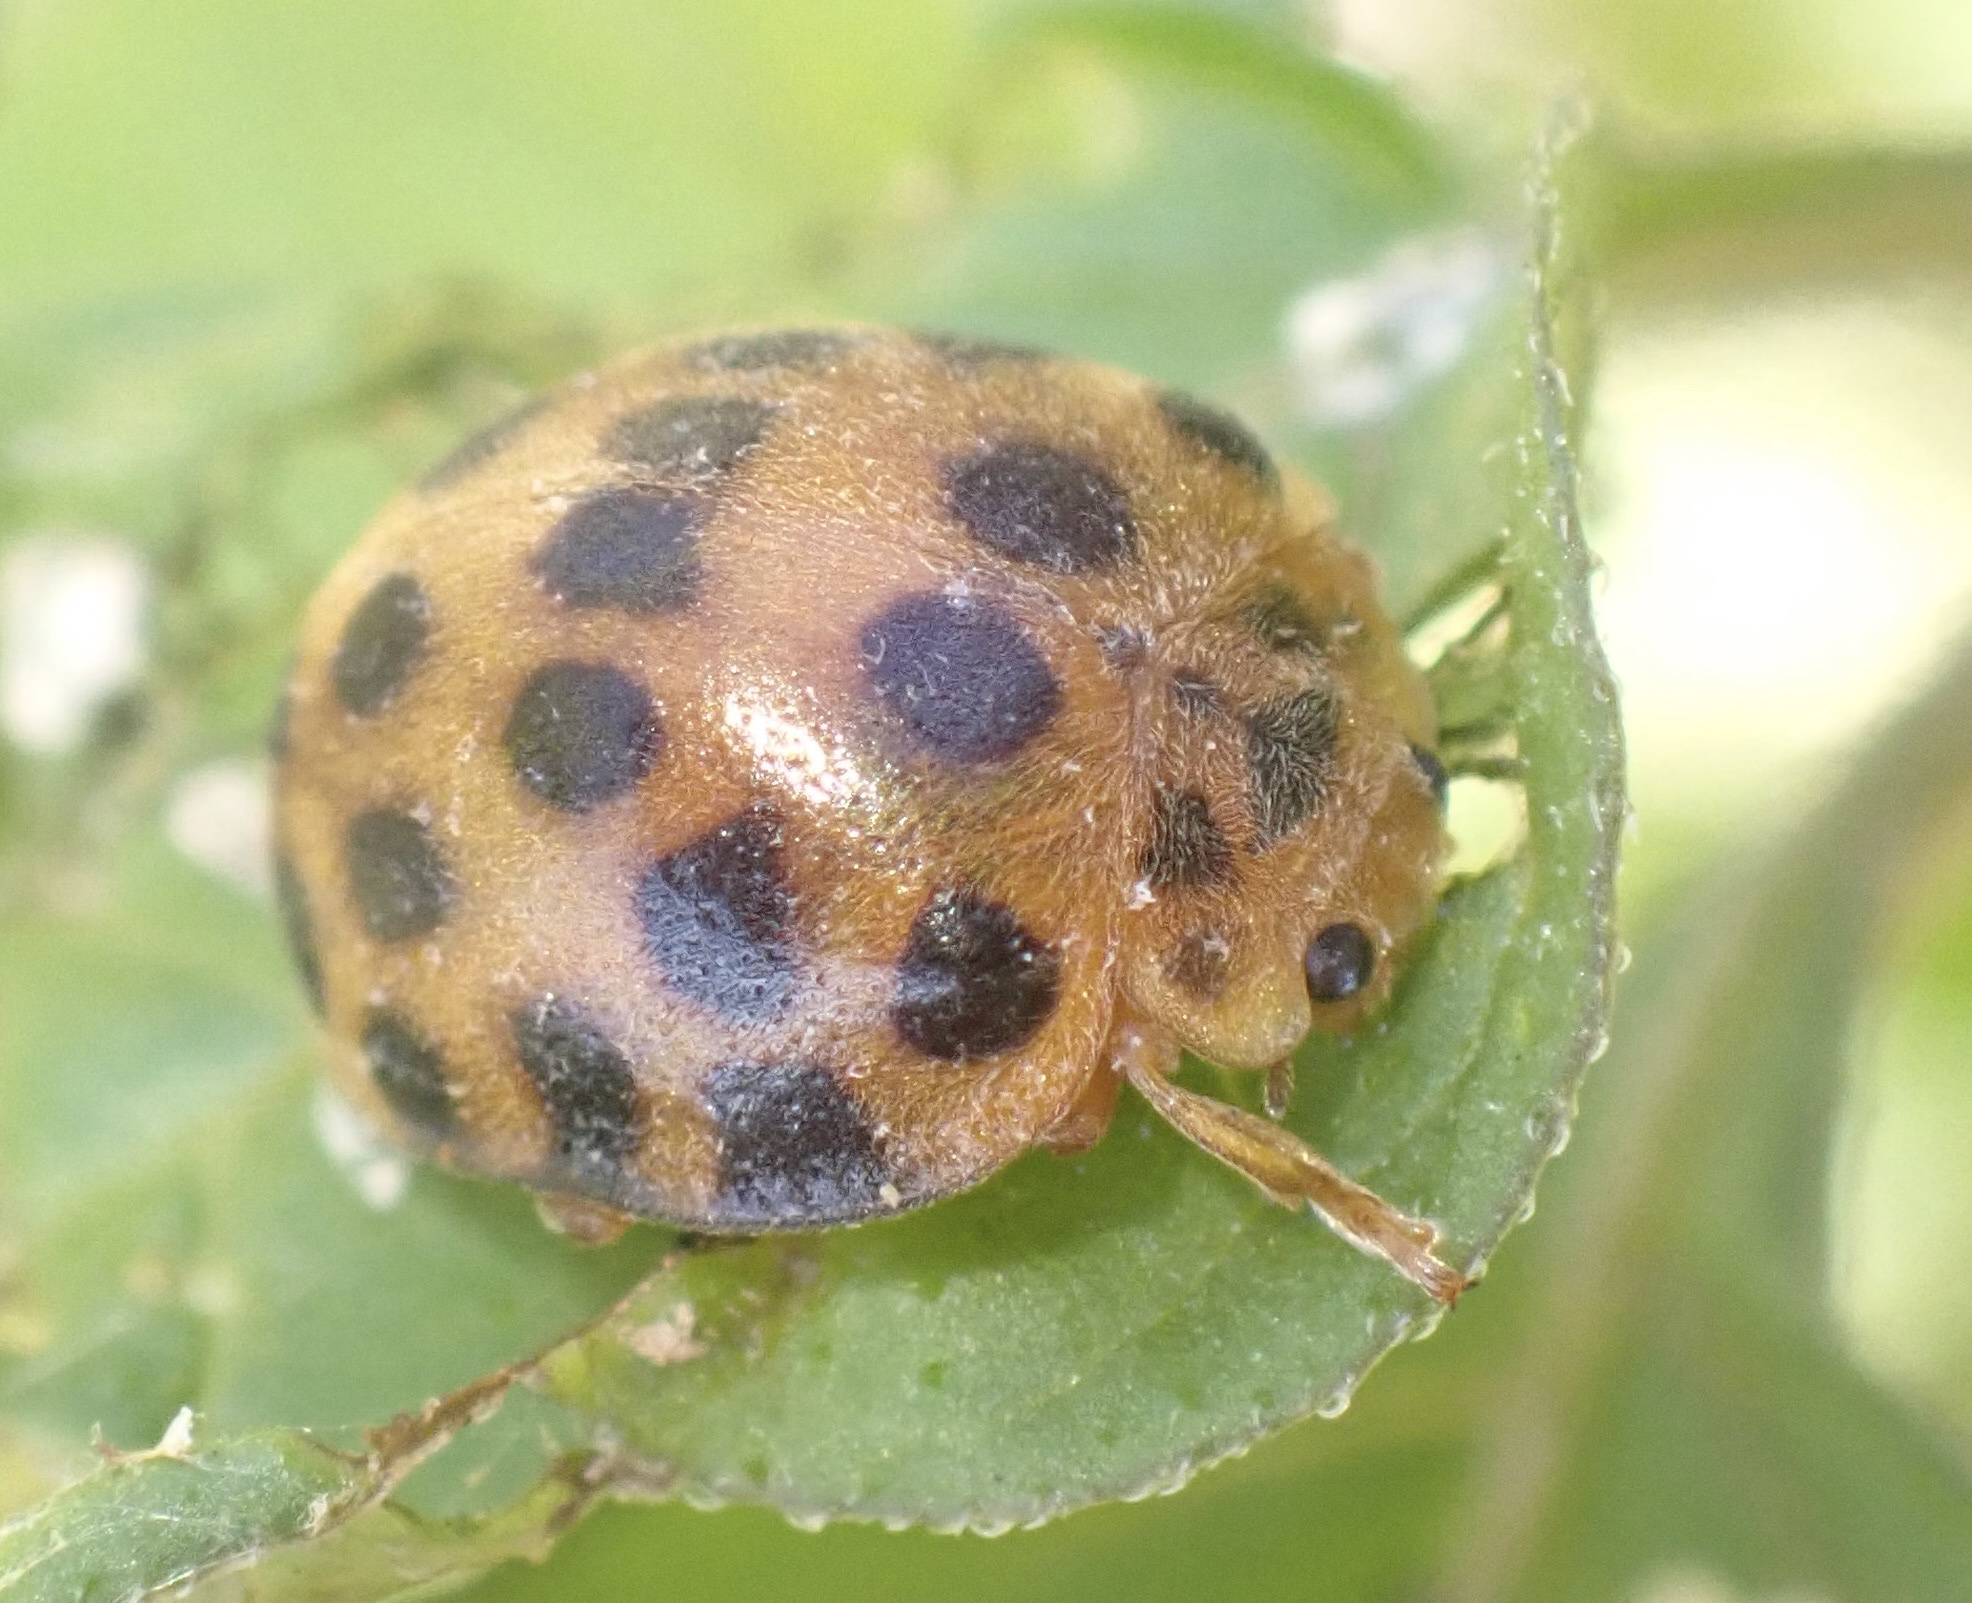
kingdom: Animalia
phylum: Arthropoda
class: Insecta
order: Coleoptera
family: Coccinellidae
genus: Henosepilachna
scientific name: Henosepilachna vigintioctopunctata
